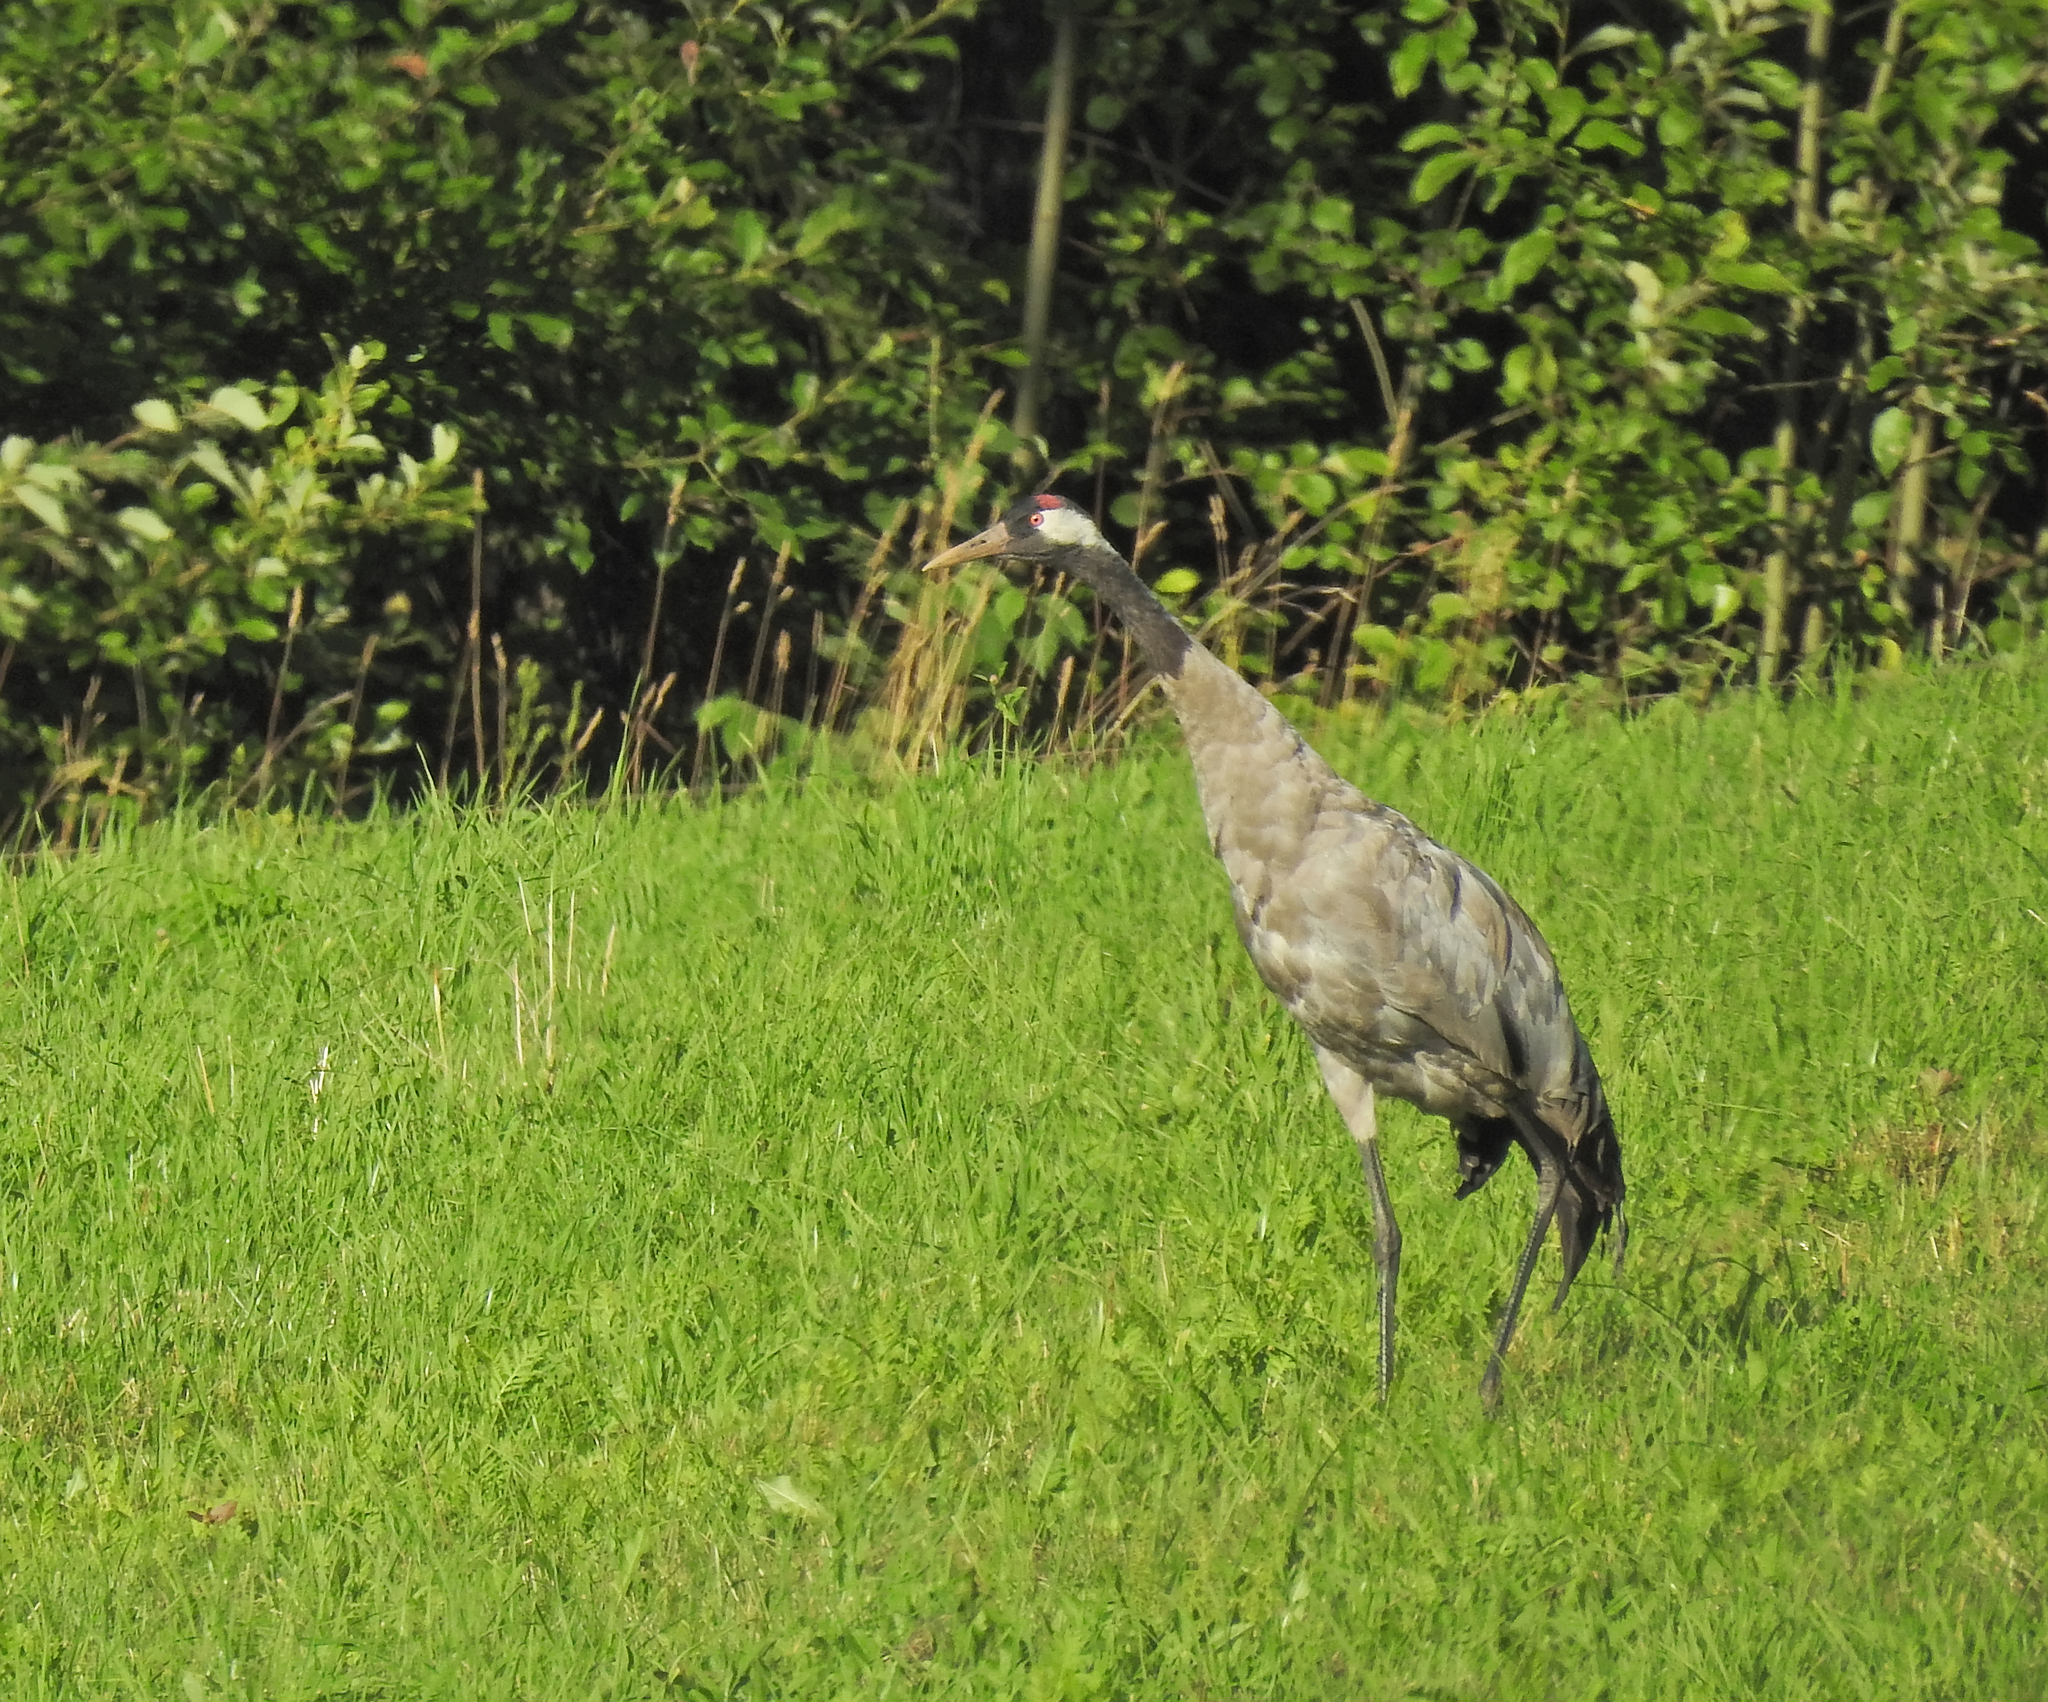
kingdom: Animalia
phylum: Chordata
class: Aves
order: Gruiformes
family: Gruidae
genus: Grus
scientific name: Grus grus
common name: Common crane
